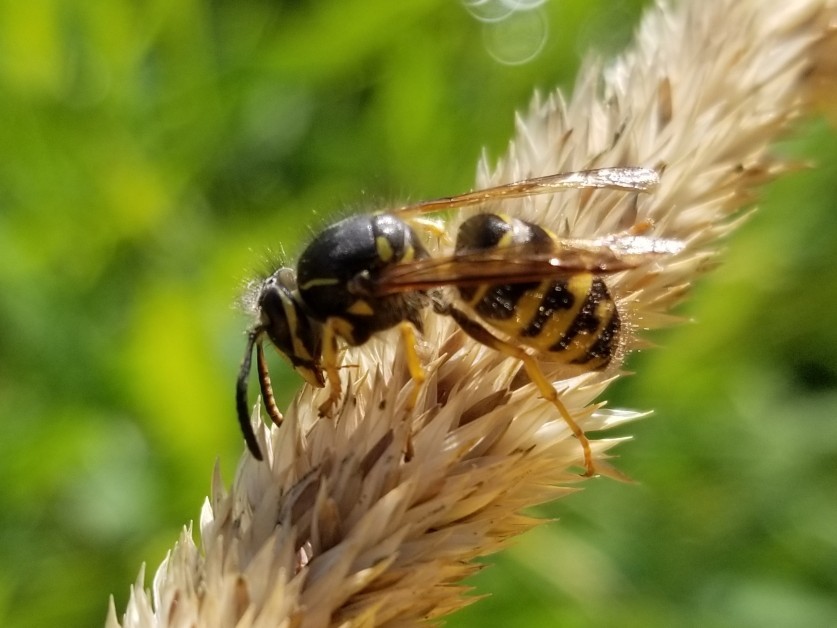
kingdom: Animalia
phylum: Arthropoda
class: Insecta
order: Hymenoptera
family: Vespidae
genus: Dolichovespula
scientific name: Dolichovespula arenaria
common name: Aerial yellowjacket
